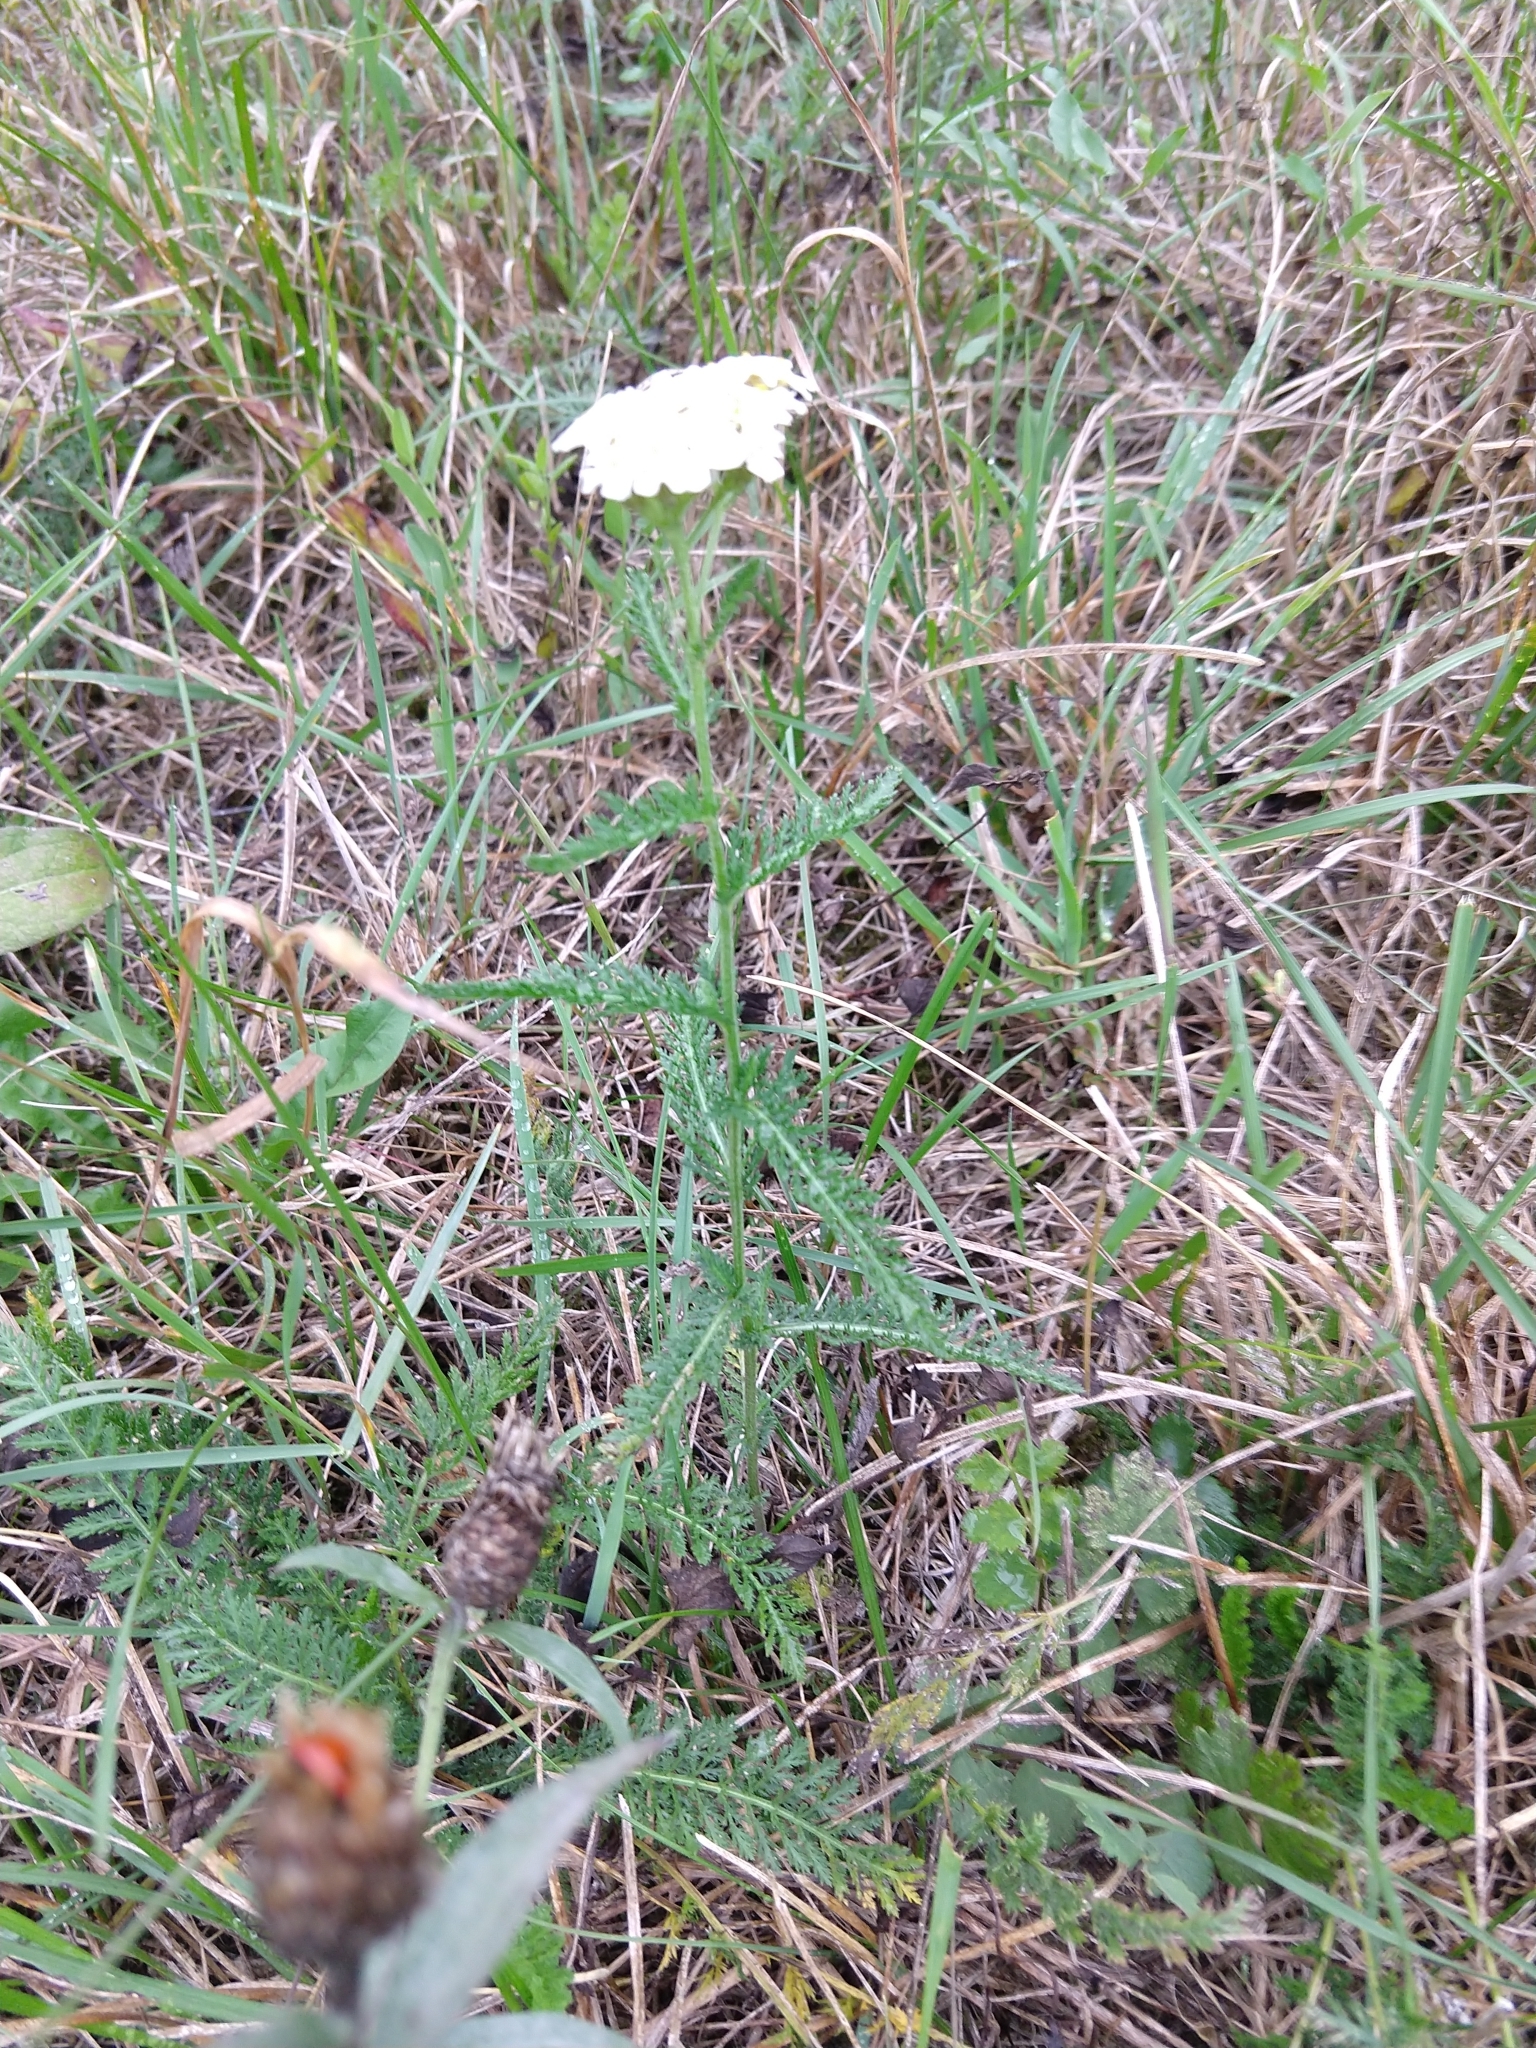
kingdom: Plantae
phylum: Tracheophyta
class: Magnoliopsida
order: Asterales
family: Asteraceae
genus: Achillea
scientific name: Achillea millefolium
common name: Yarrow
